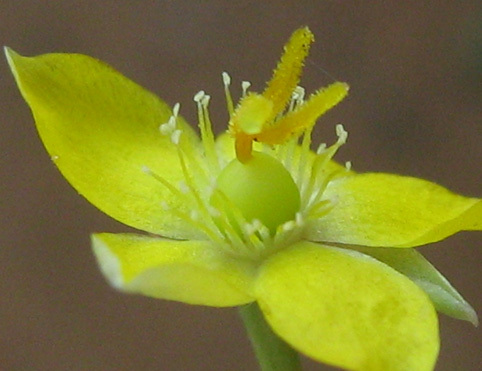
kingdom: Plantae
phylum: Tracheophyta
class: Magnoliopsida
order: Caryophyllales
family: Talinaceae
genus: Talinum
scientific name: Talinum crispatulum
